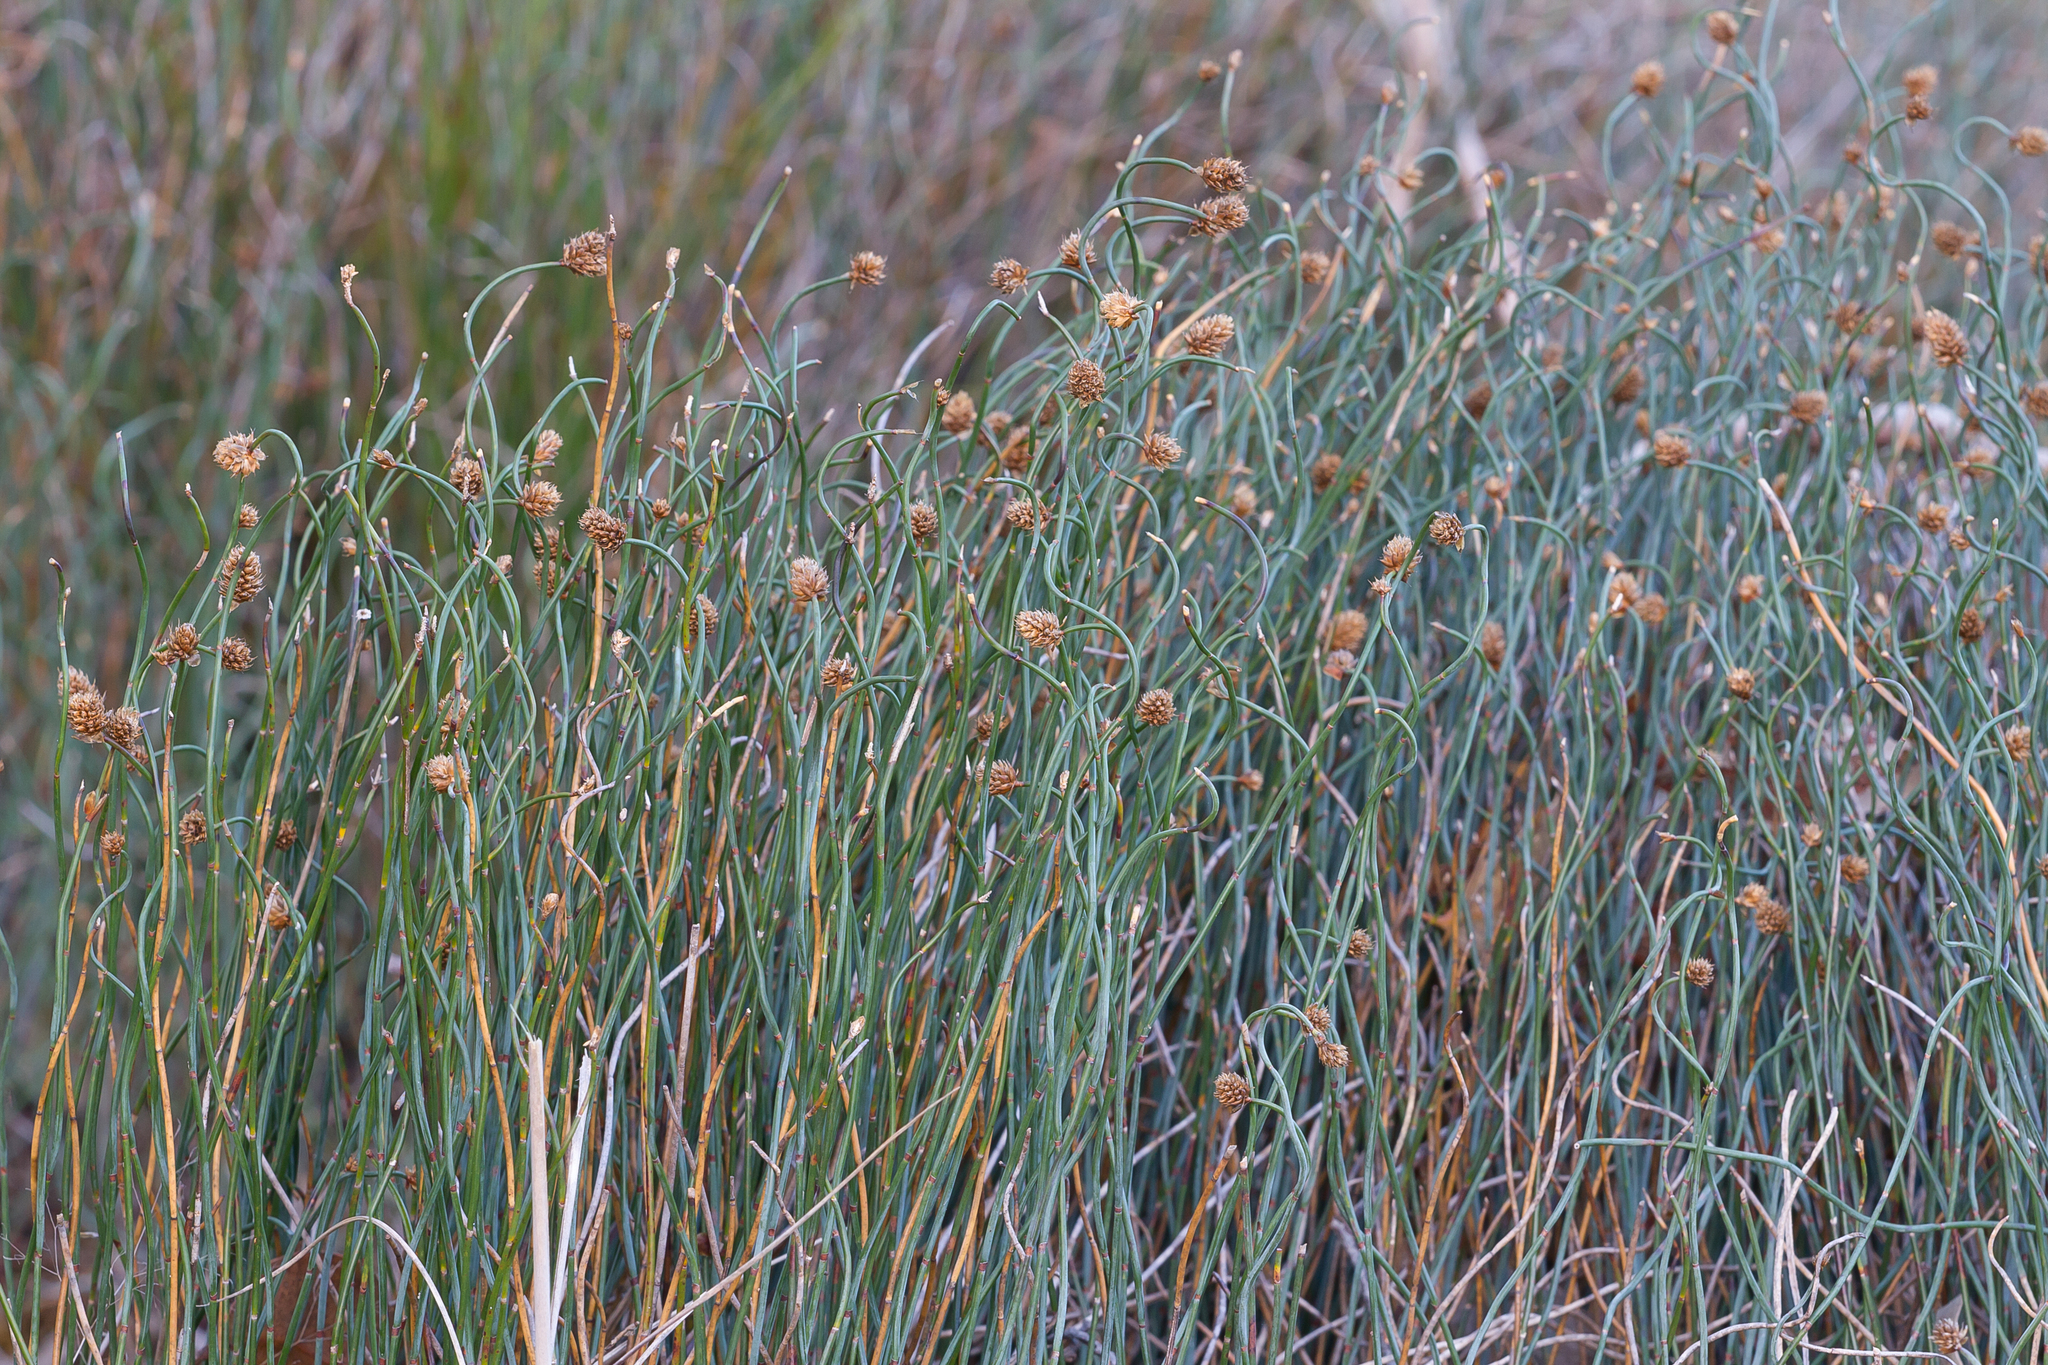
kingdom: Plantae
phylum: Tracheophyta
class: Liliopsida
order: Poales
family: Restionaceae
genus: Lepidobolus
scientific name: Lepidobolus drapetocoleus
